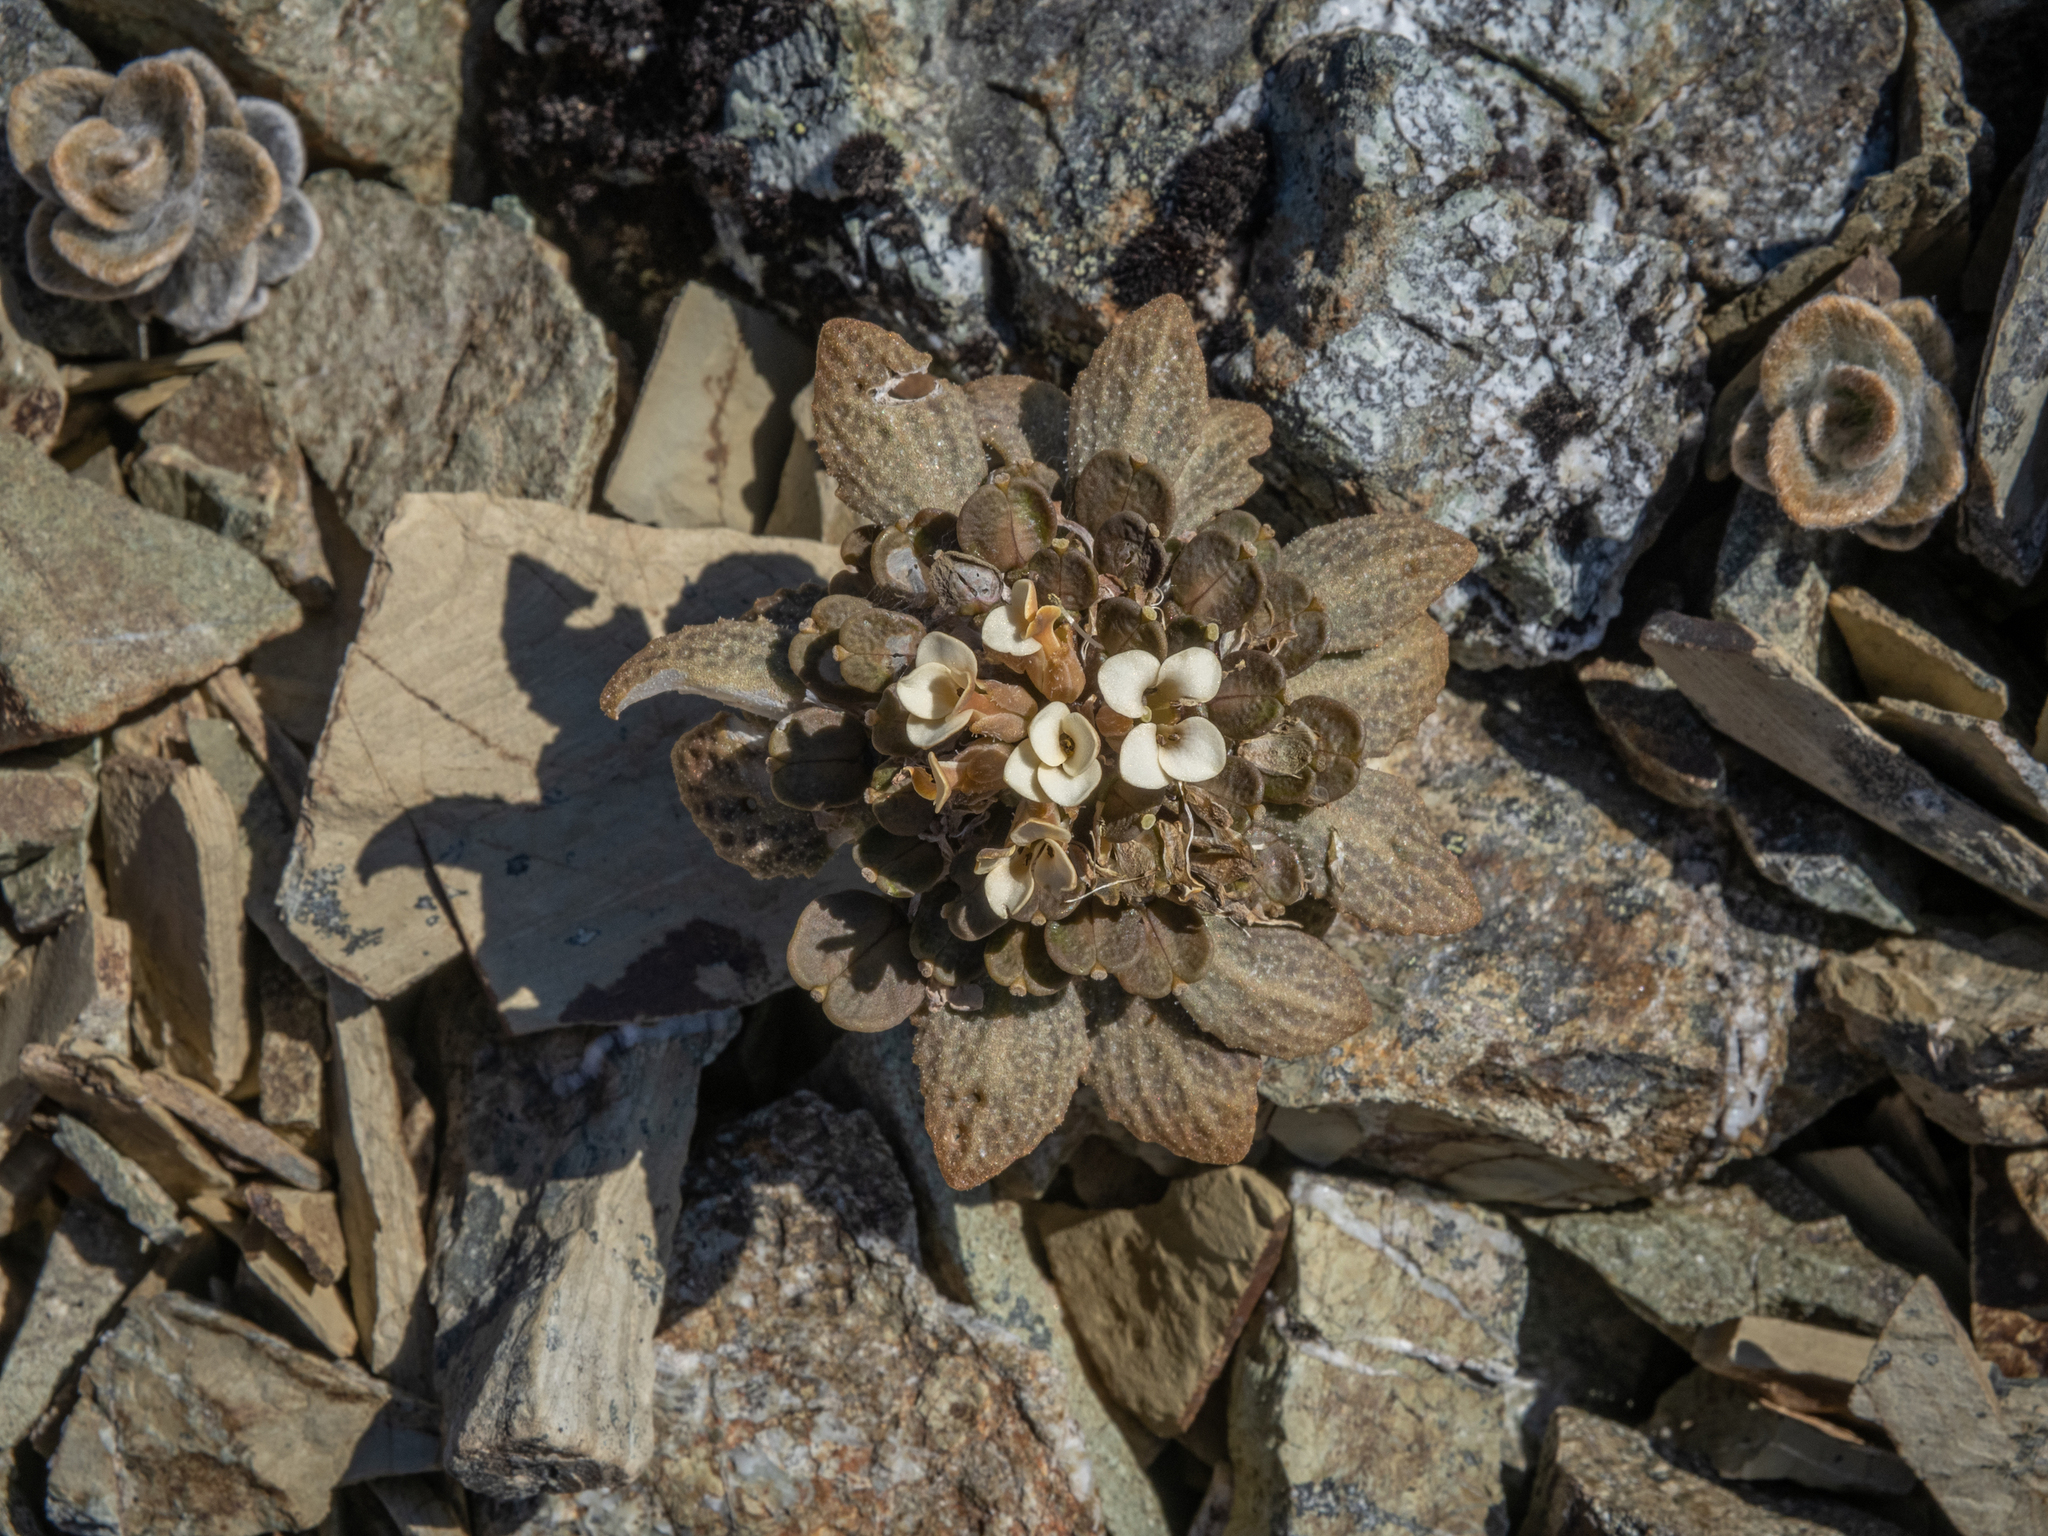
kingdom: Plantae
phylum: Tracheophyta
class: Magnoliopsida
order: Brassicales
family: Brassicaceae
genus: Notothlaspi
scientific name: Notothlaspi rosulatum
